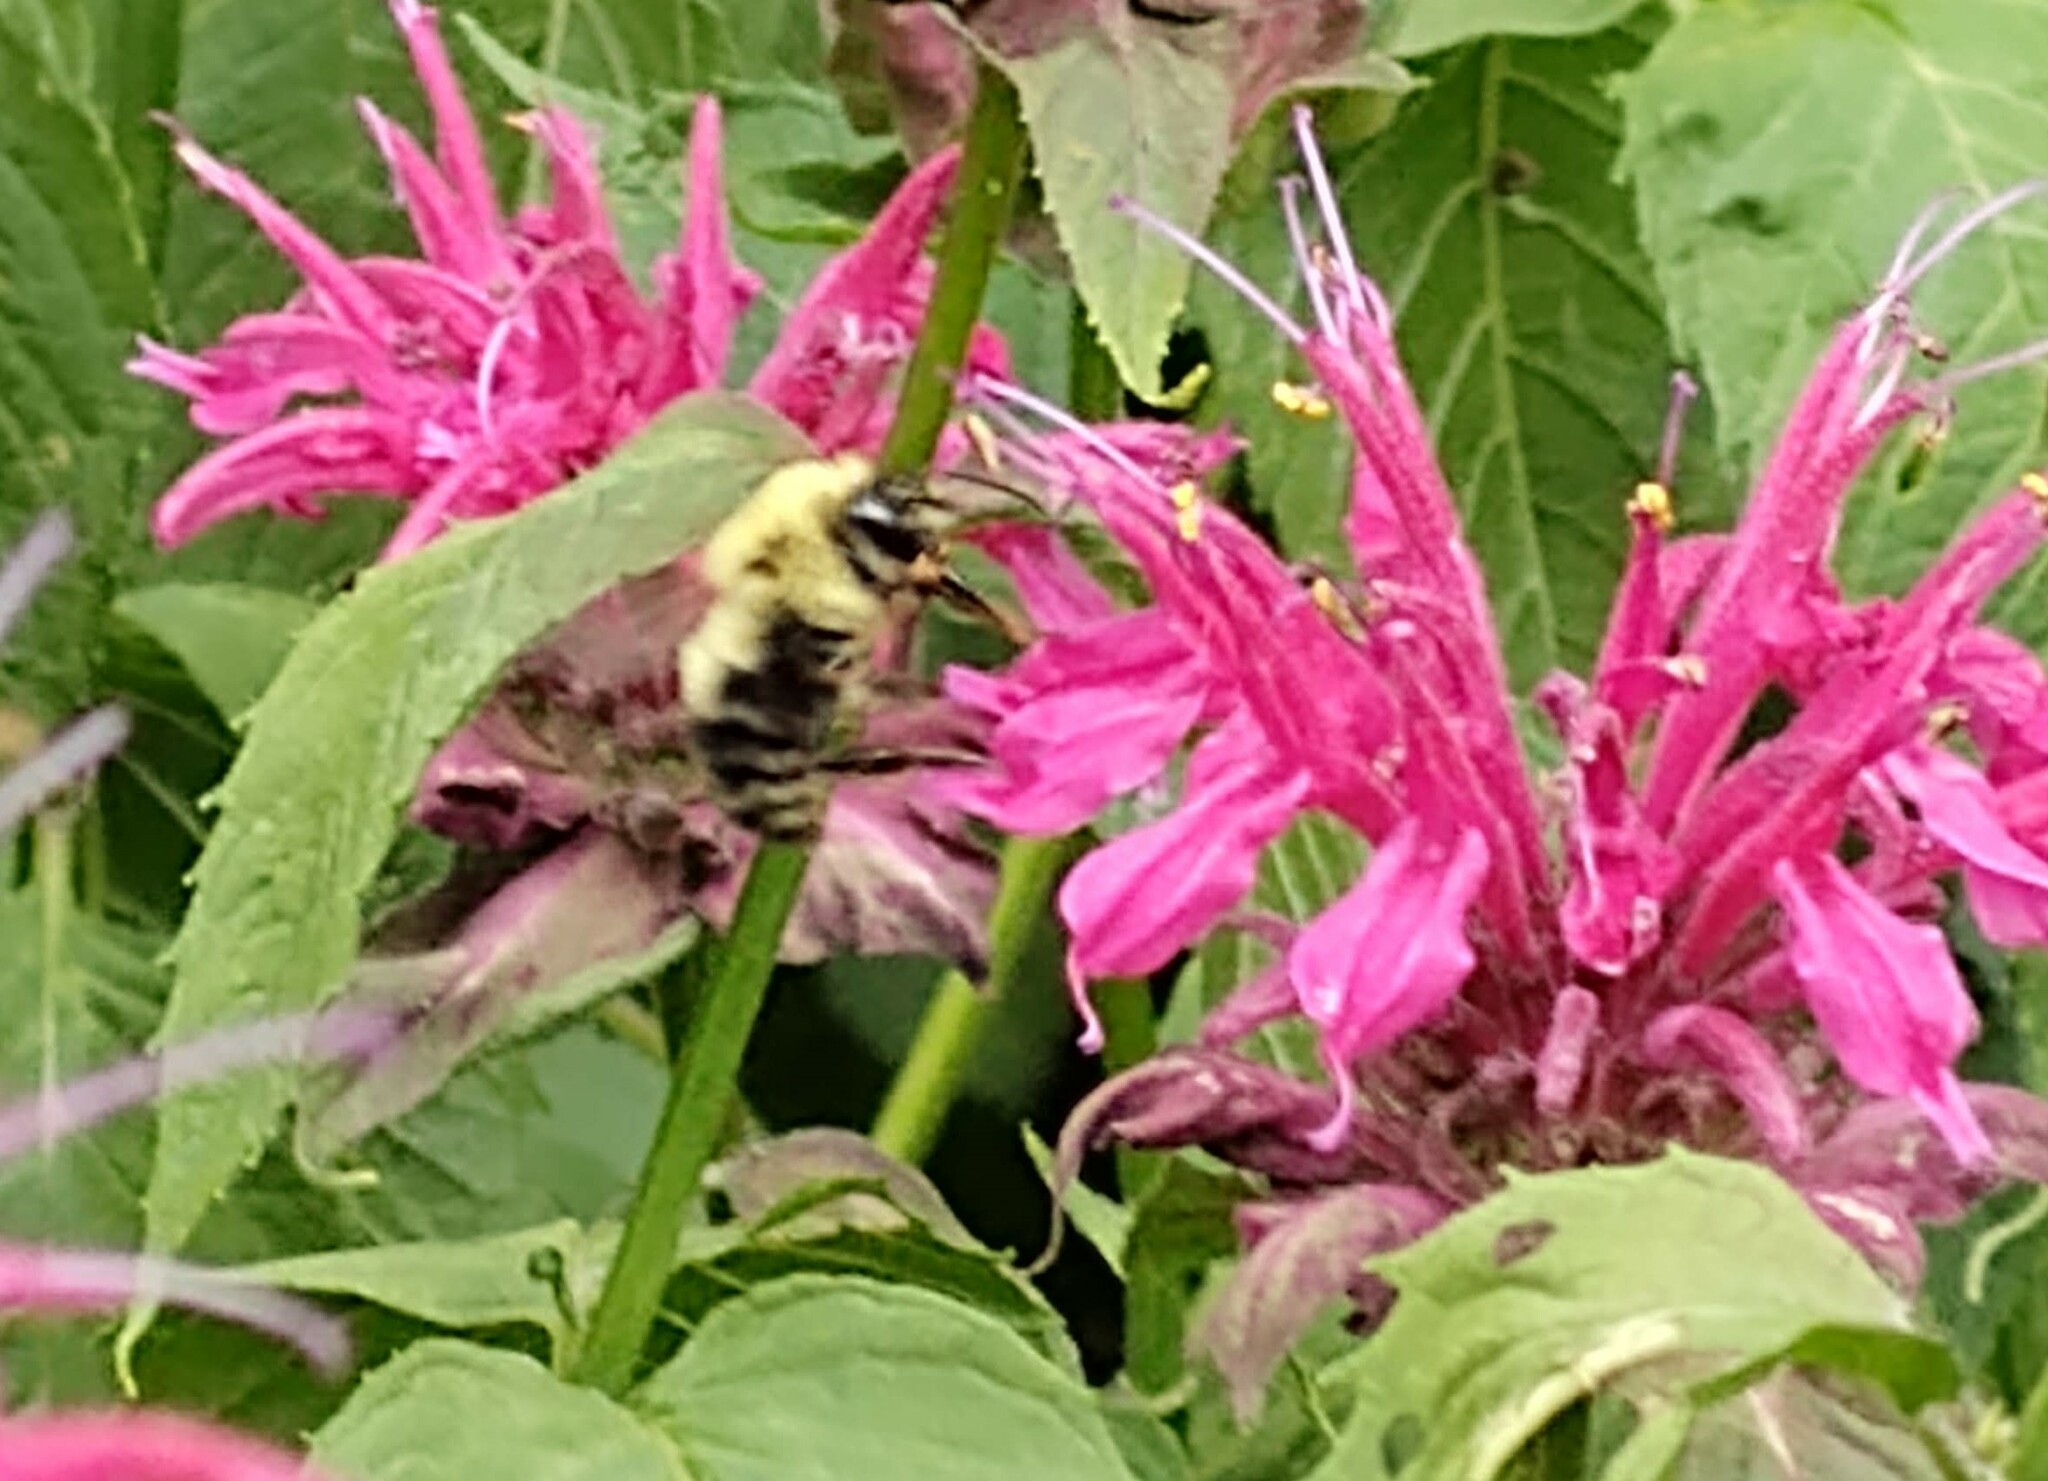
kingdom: Animalia
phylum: Arthropoda
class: Insecta
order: Hymenoptera
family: Apidae
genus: Bombus
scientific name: Bombus bimaculatus
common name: Two-spotted bumble bee
